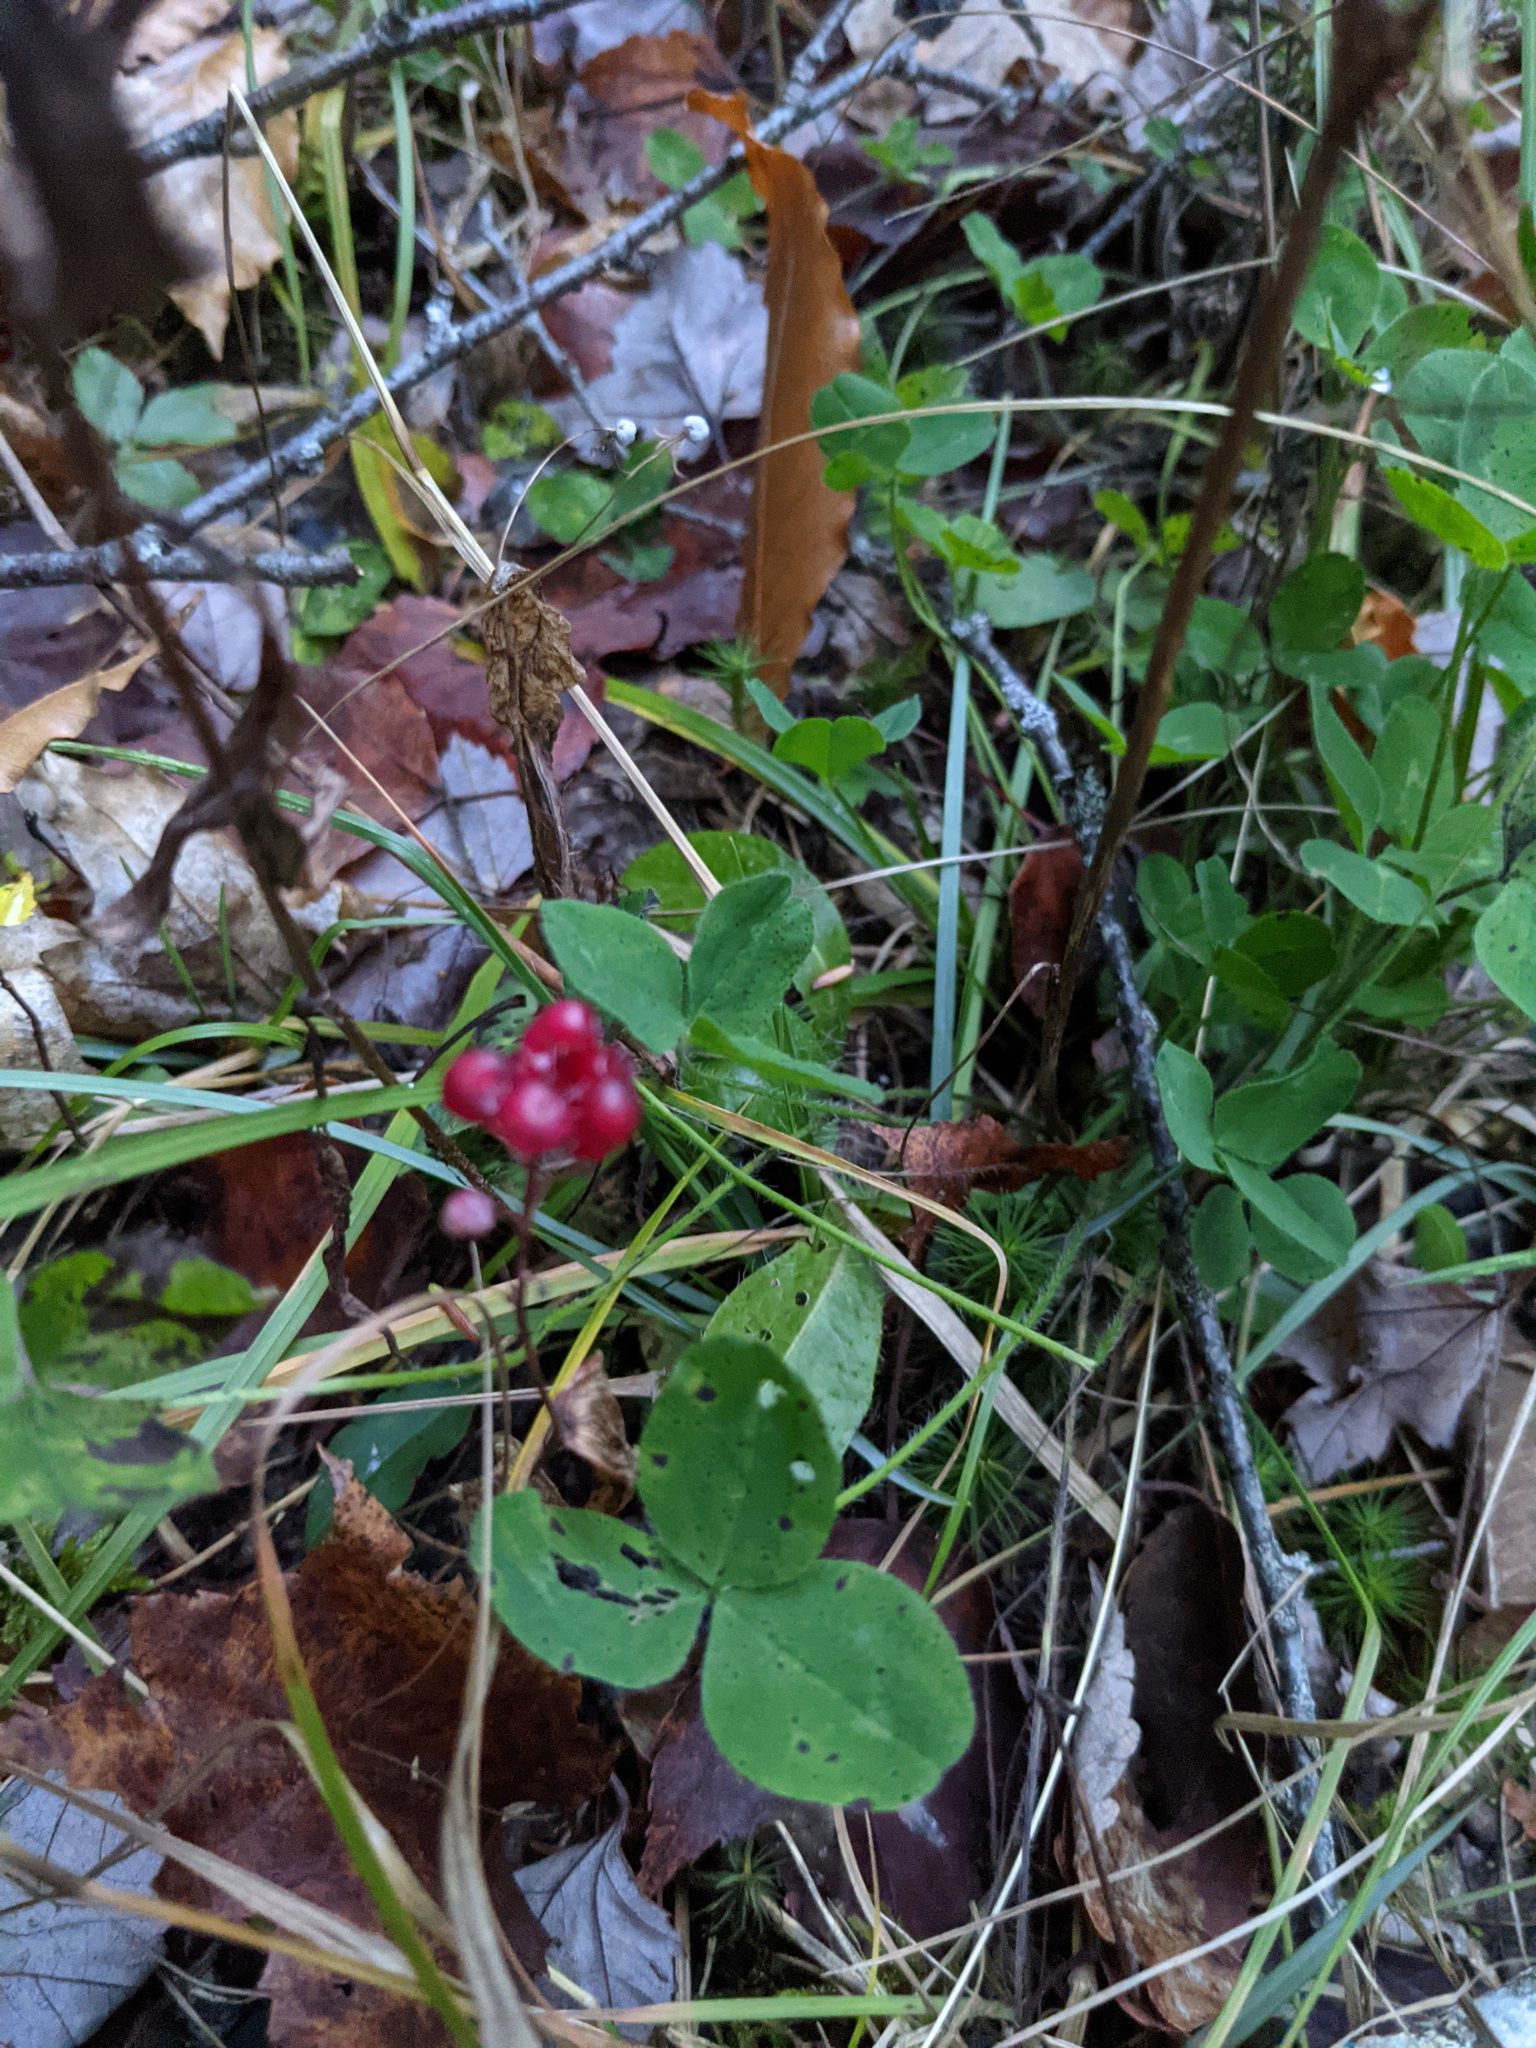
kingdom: Plantae
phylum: Tracheophyta
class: Liliopsida
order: Asparagales
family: Asparagaceae
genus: Maianthemum
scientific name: Maianthemum canadense
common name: False lily-of-the-valley
